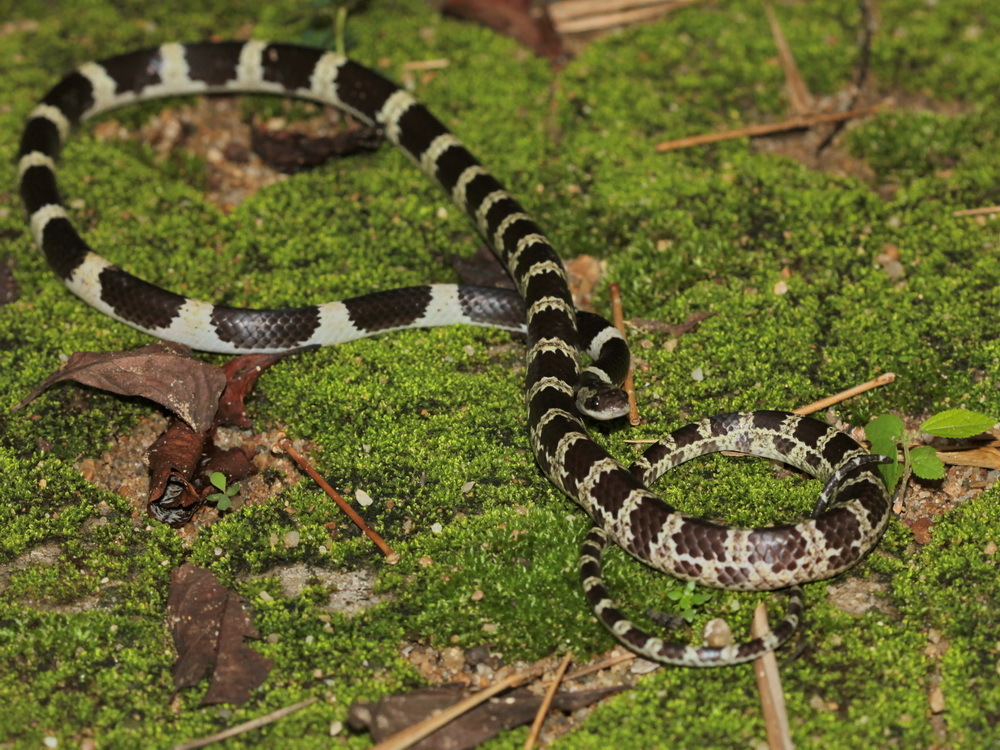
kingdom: Animalia
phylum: Chordata
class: Squamata
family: Colubridae
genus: Lycodon
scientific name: Lycodon davisonii
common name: Blanford's bridal snake
